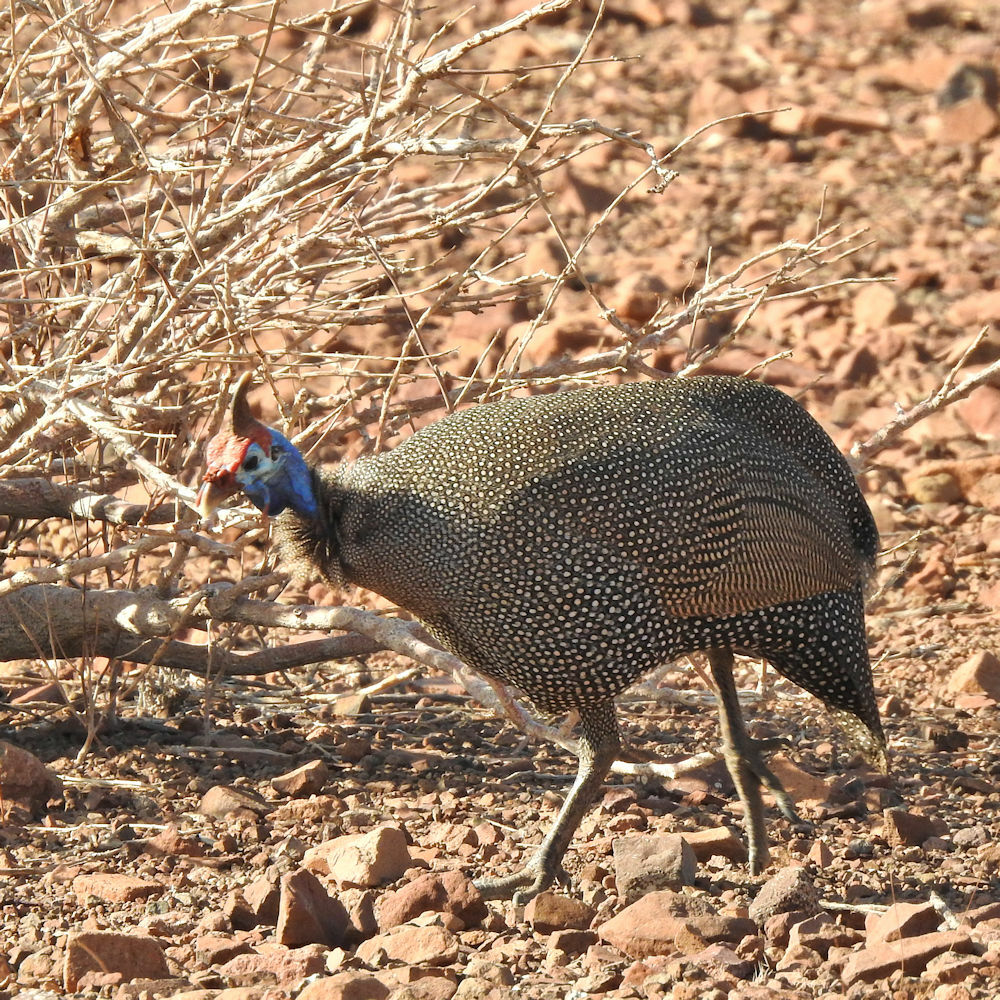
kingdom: Animalia
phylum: Chordata
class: Aves
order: Galliformes
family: Numididae
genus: Numida
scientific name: Numida meleagris
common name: Helmeted guineafowl
